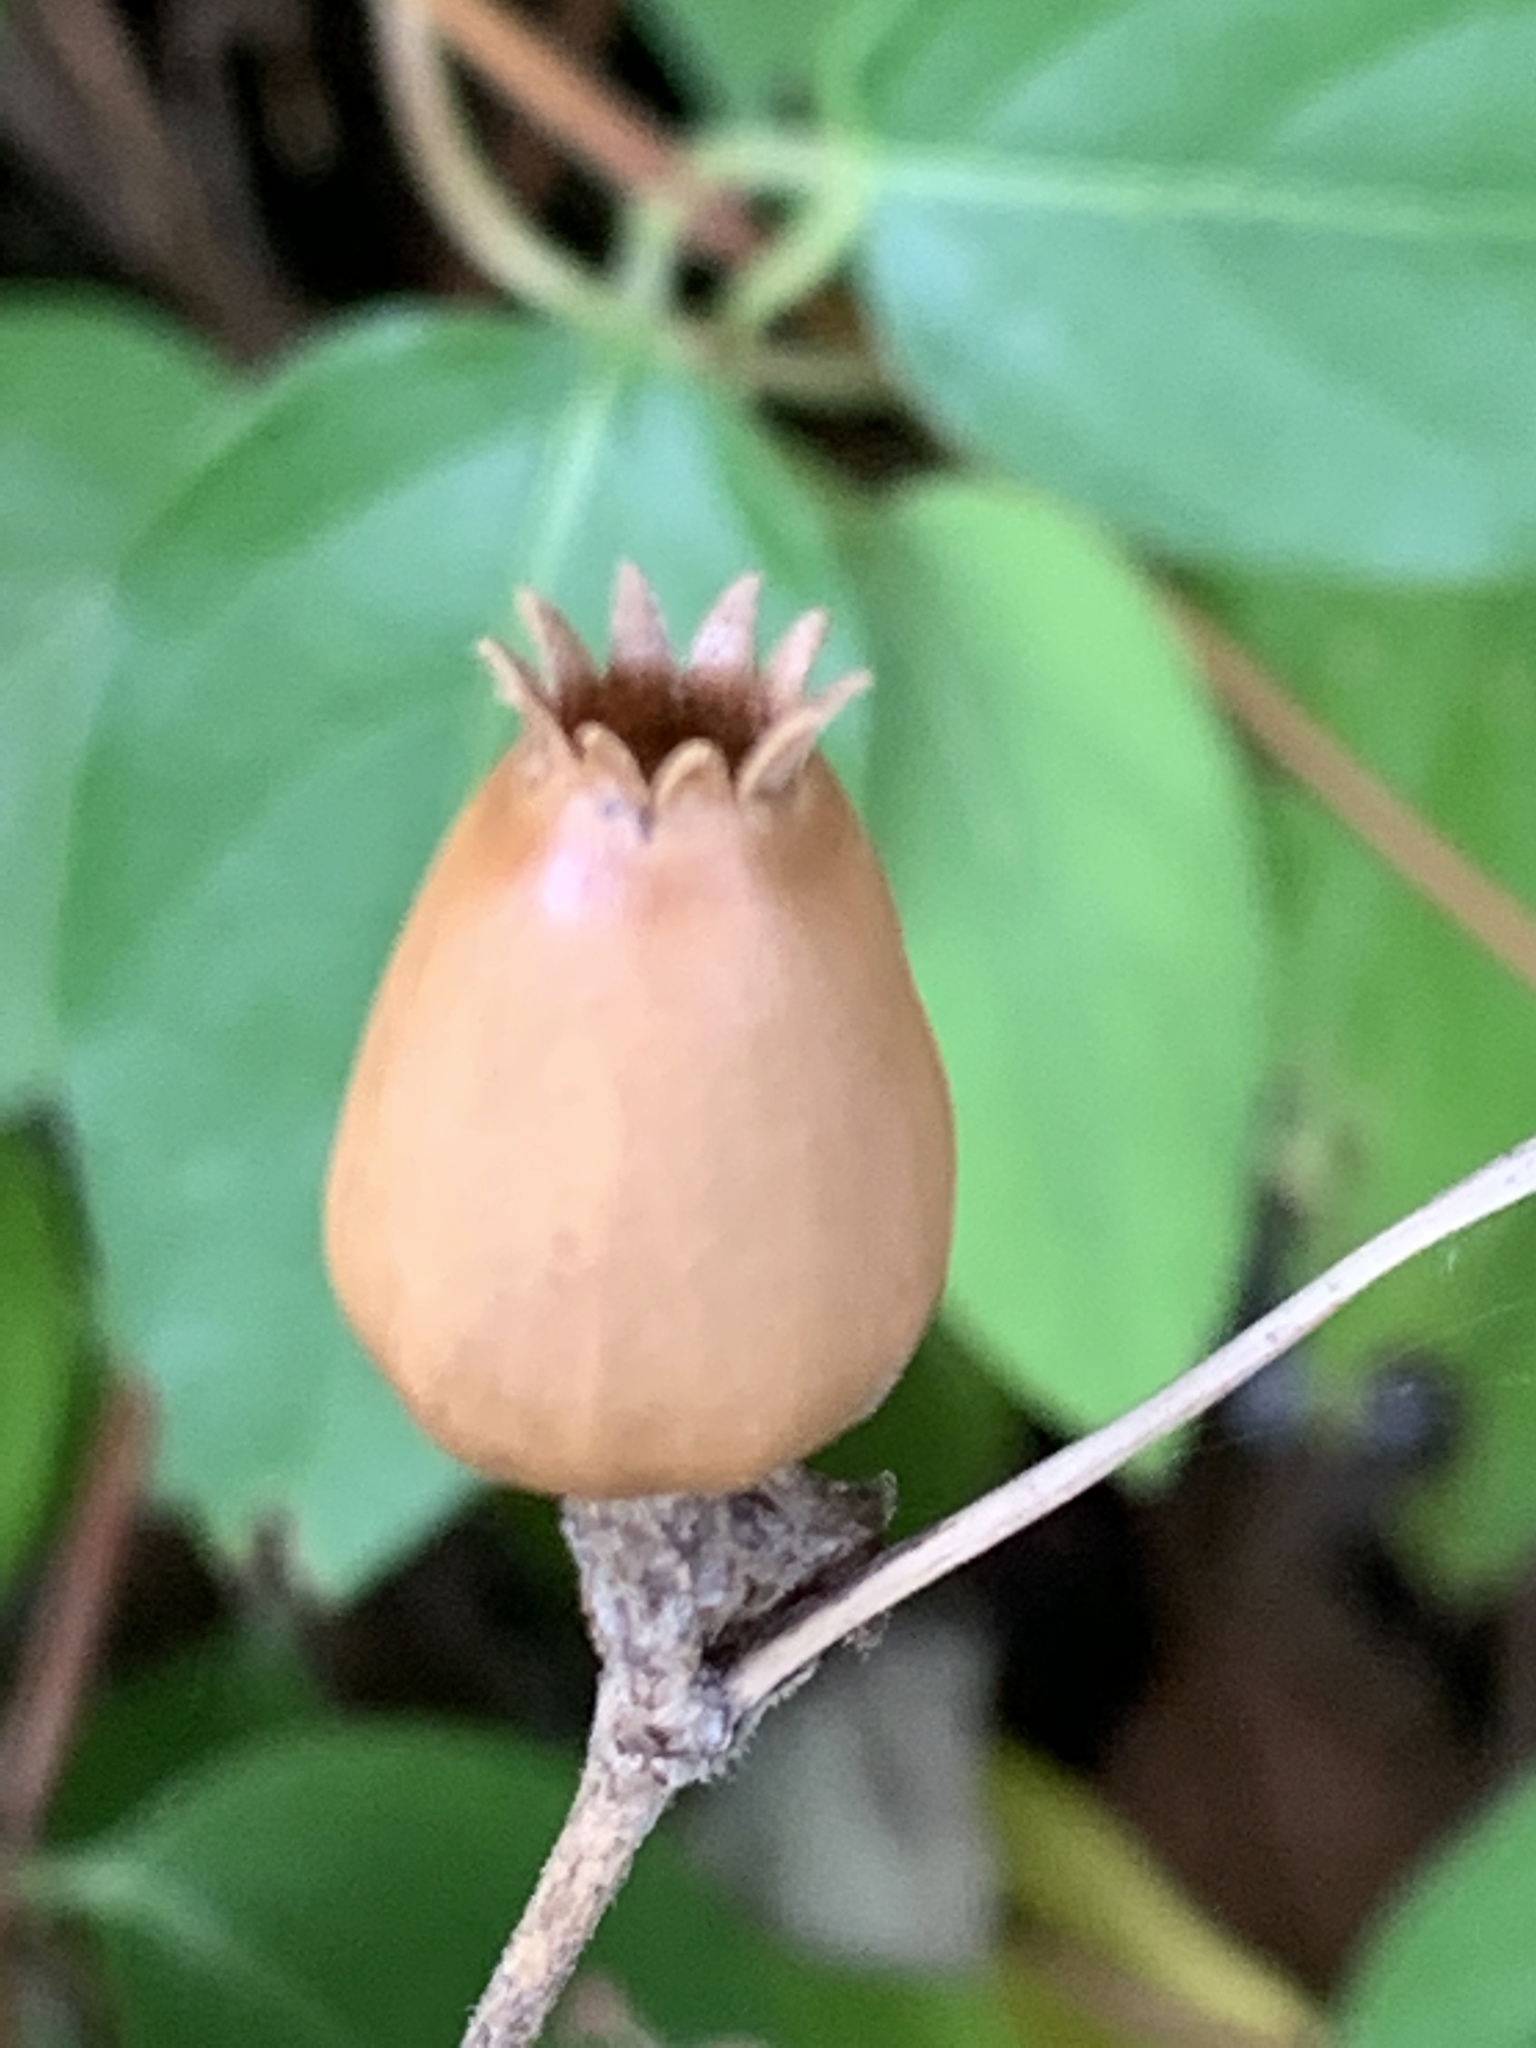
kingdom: Plantae
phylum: Tracheophyta
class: Magnoliopsida
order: Caryophyllales
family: Caryophyllaceae
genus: Silene
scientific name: Silene latifolia
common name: White campion
